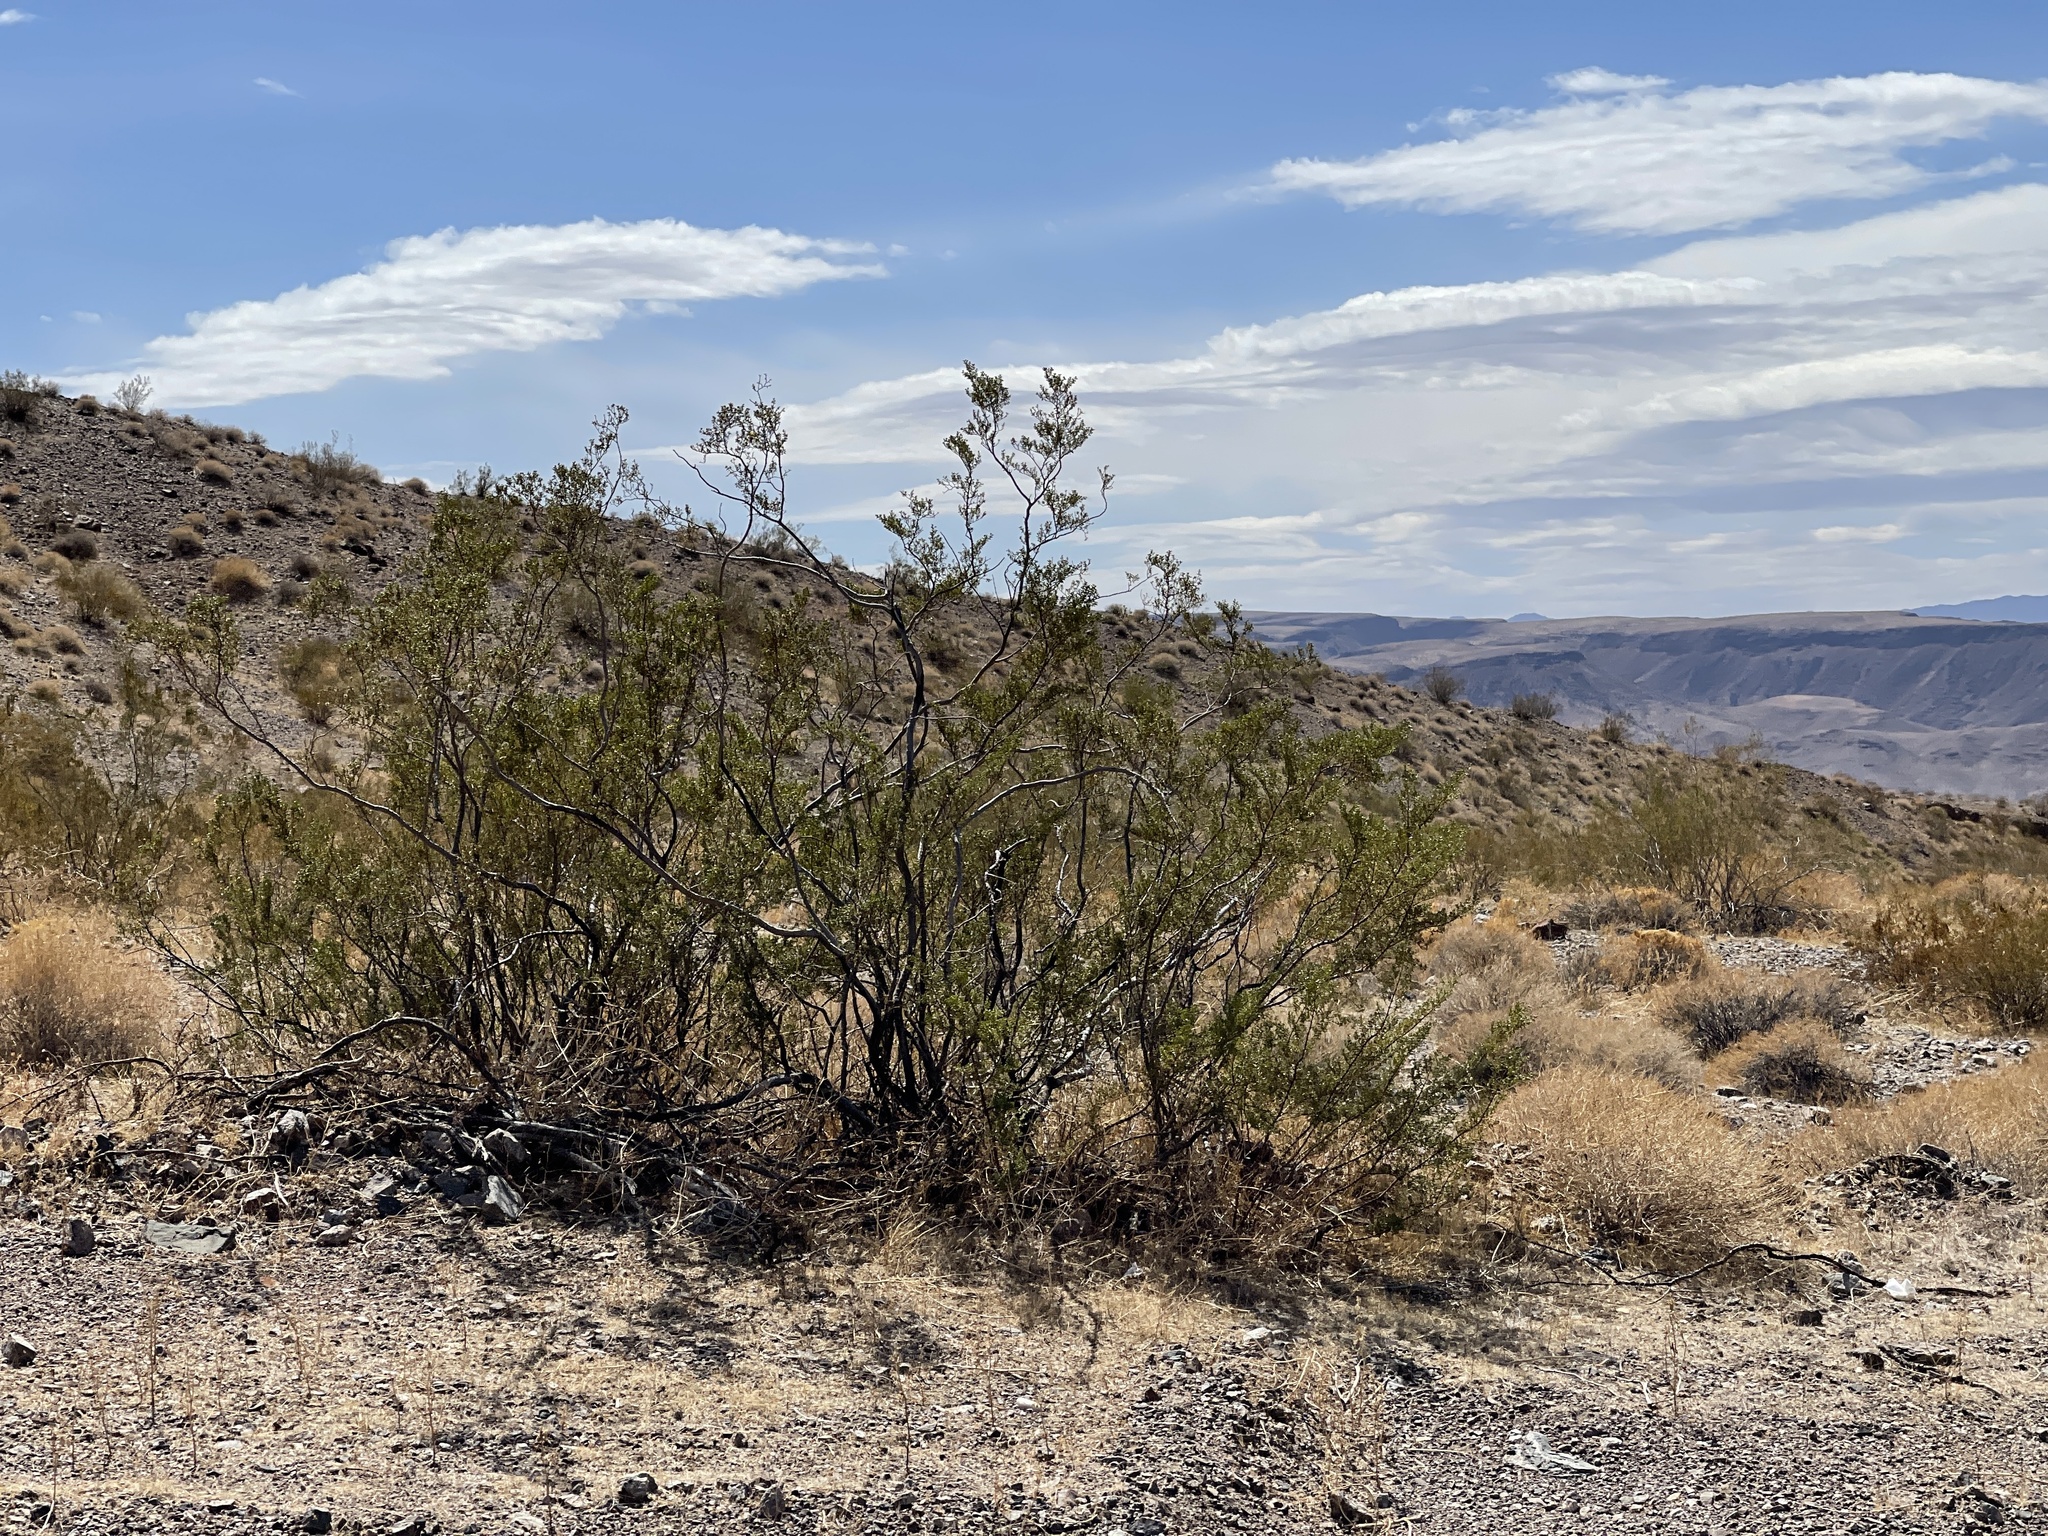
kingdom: Plantae
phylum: Tracheophyta
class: Magnoliopsida
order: Zygophyllales
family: Zygophyllaceae
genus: Larrea
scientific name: Larrea tridentata
